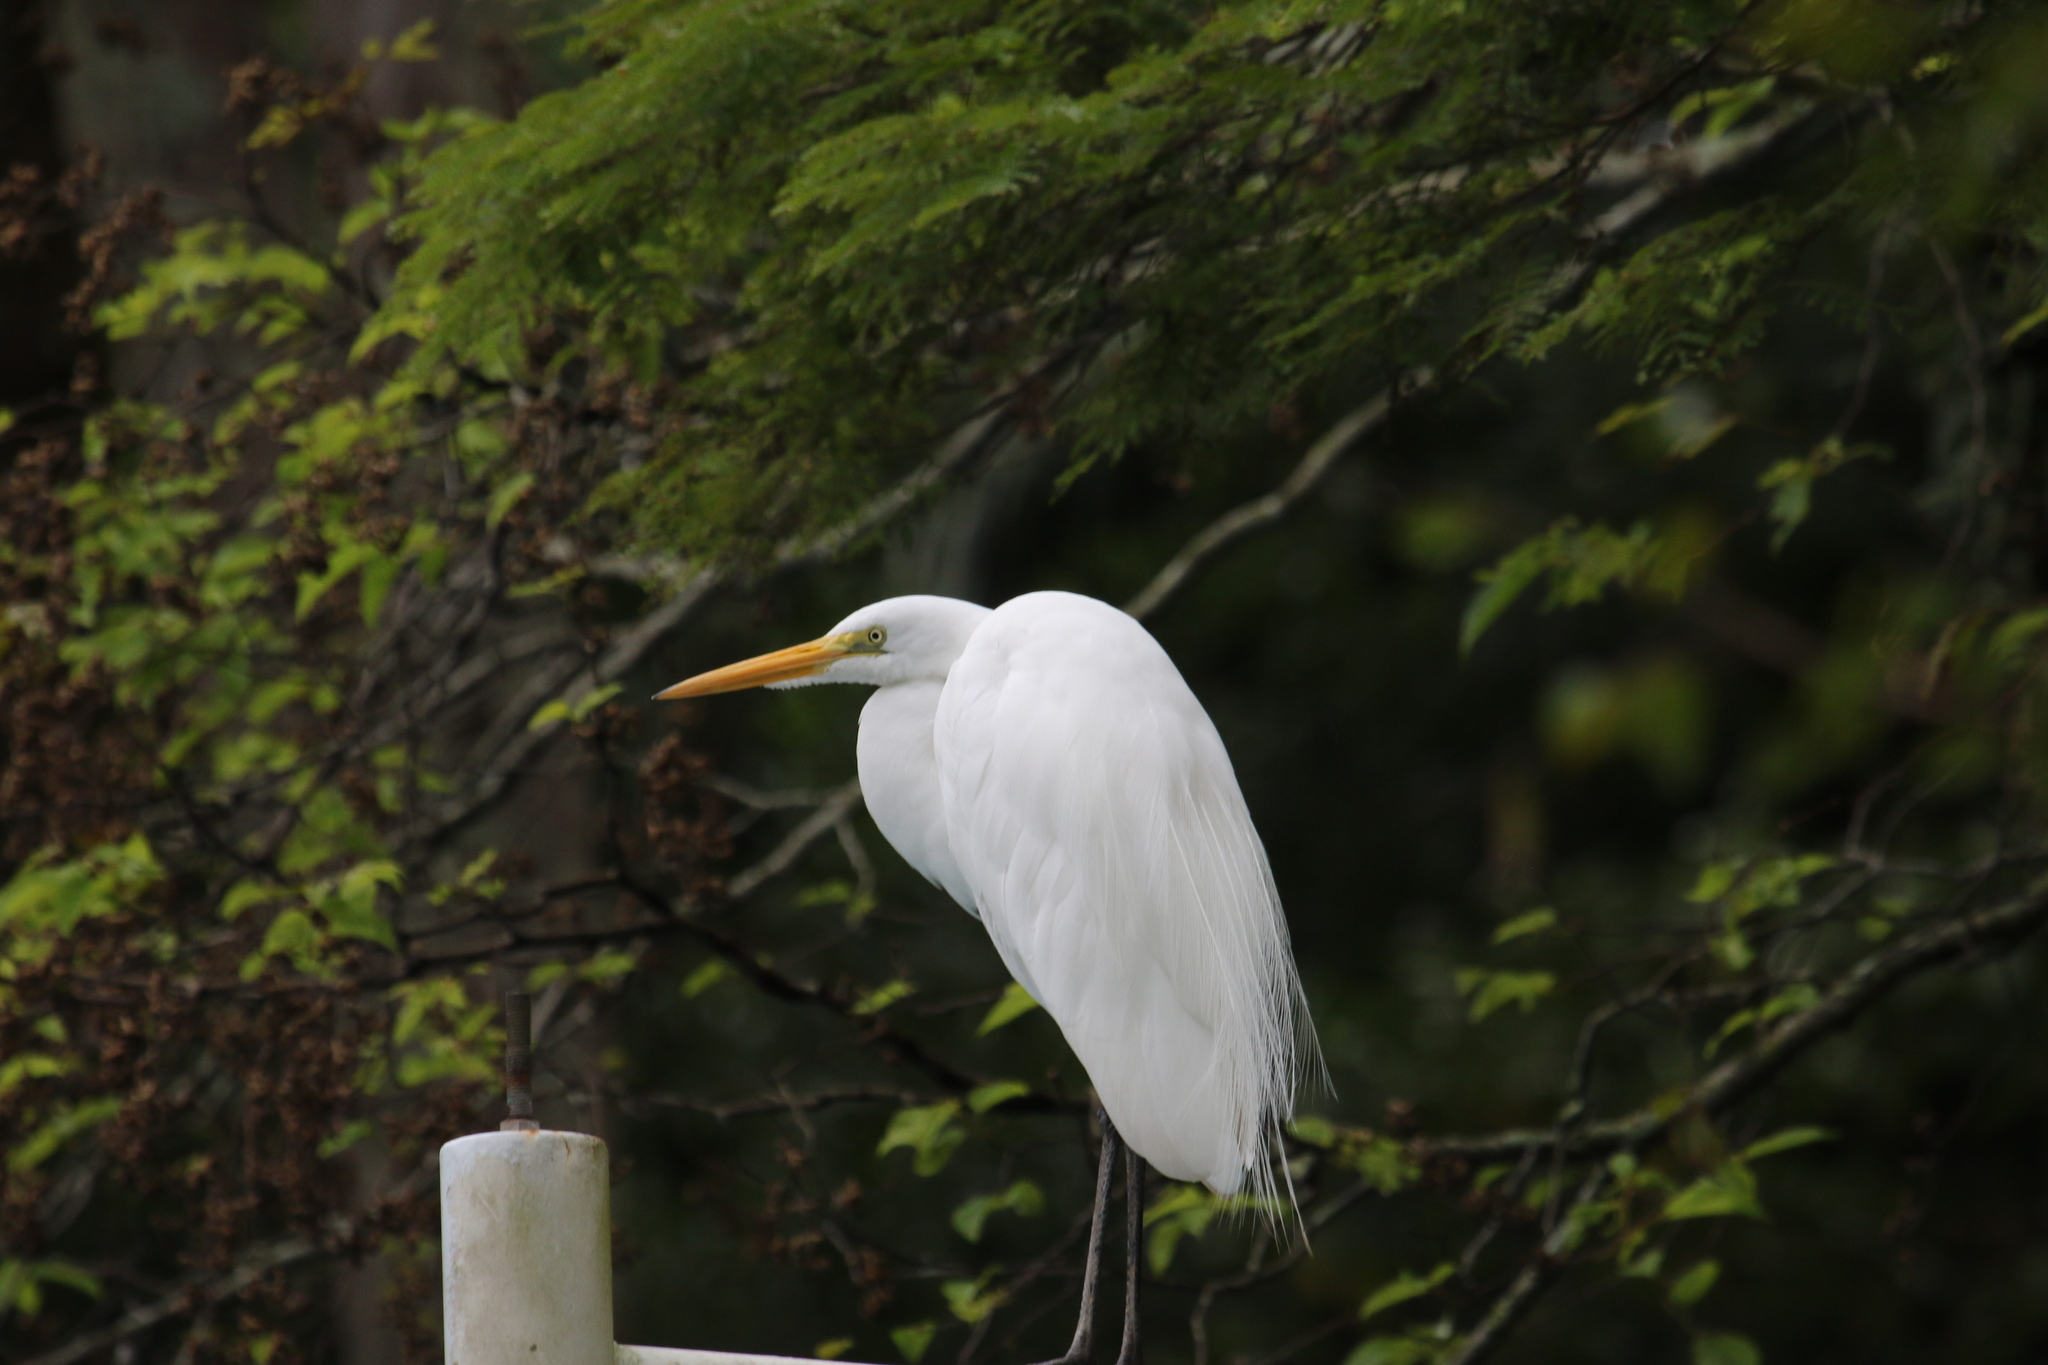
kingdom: Animalia
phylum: Chordata
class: Aves
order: Pelecaniformes
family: Ardeidae
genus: Ardea
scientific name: Ardea alba
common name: Great egret
